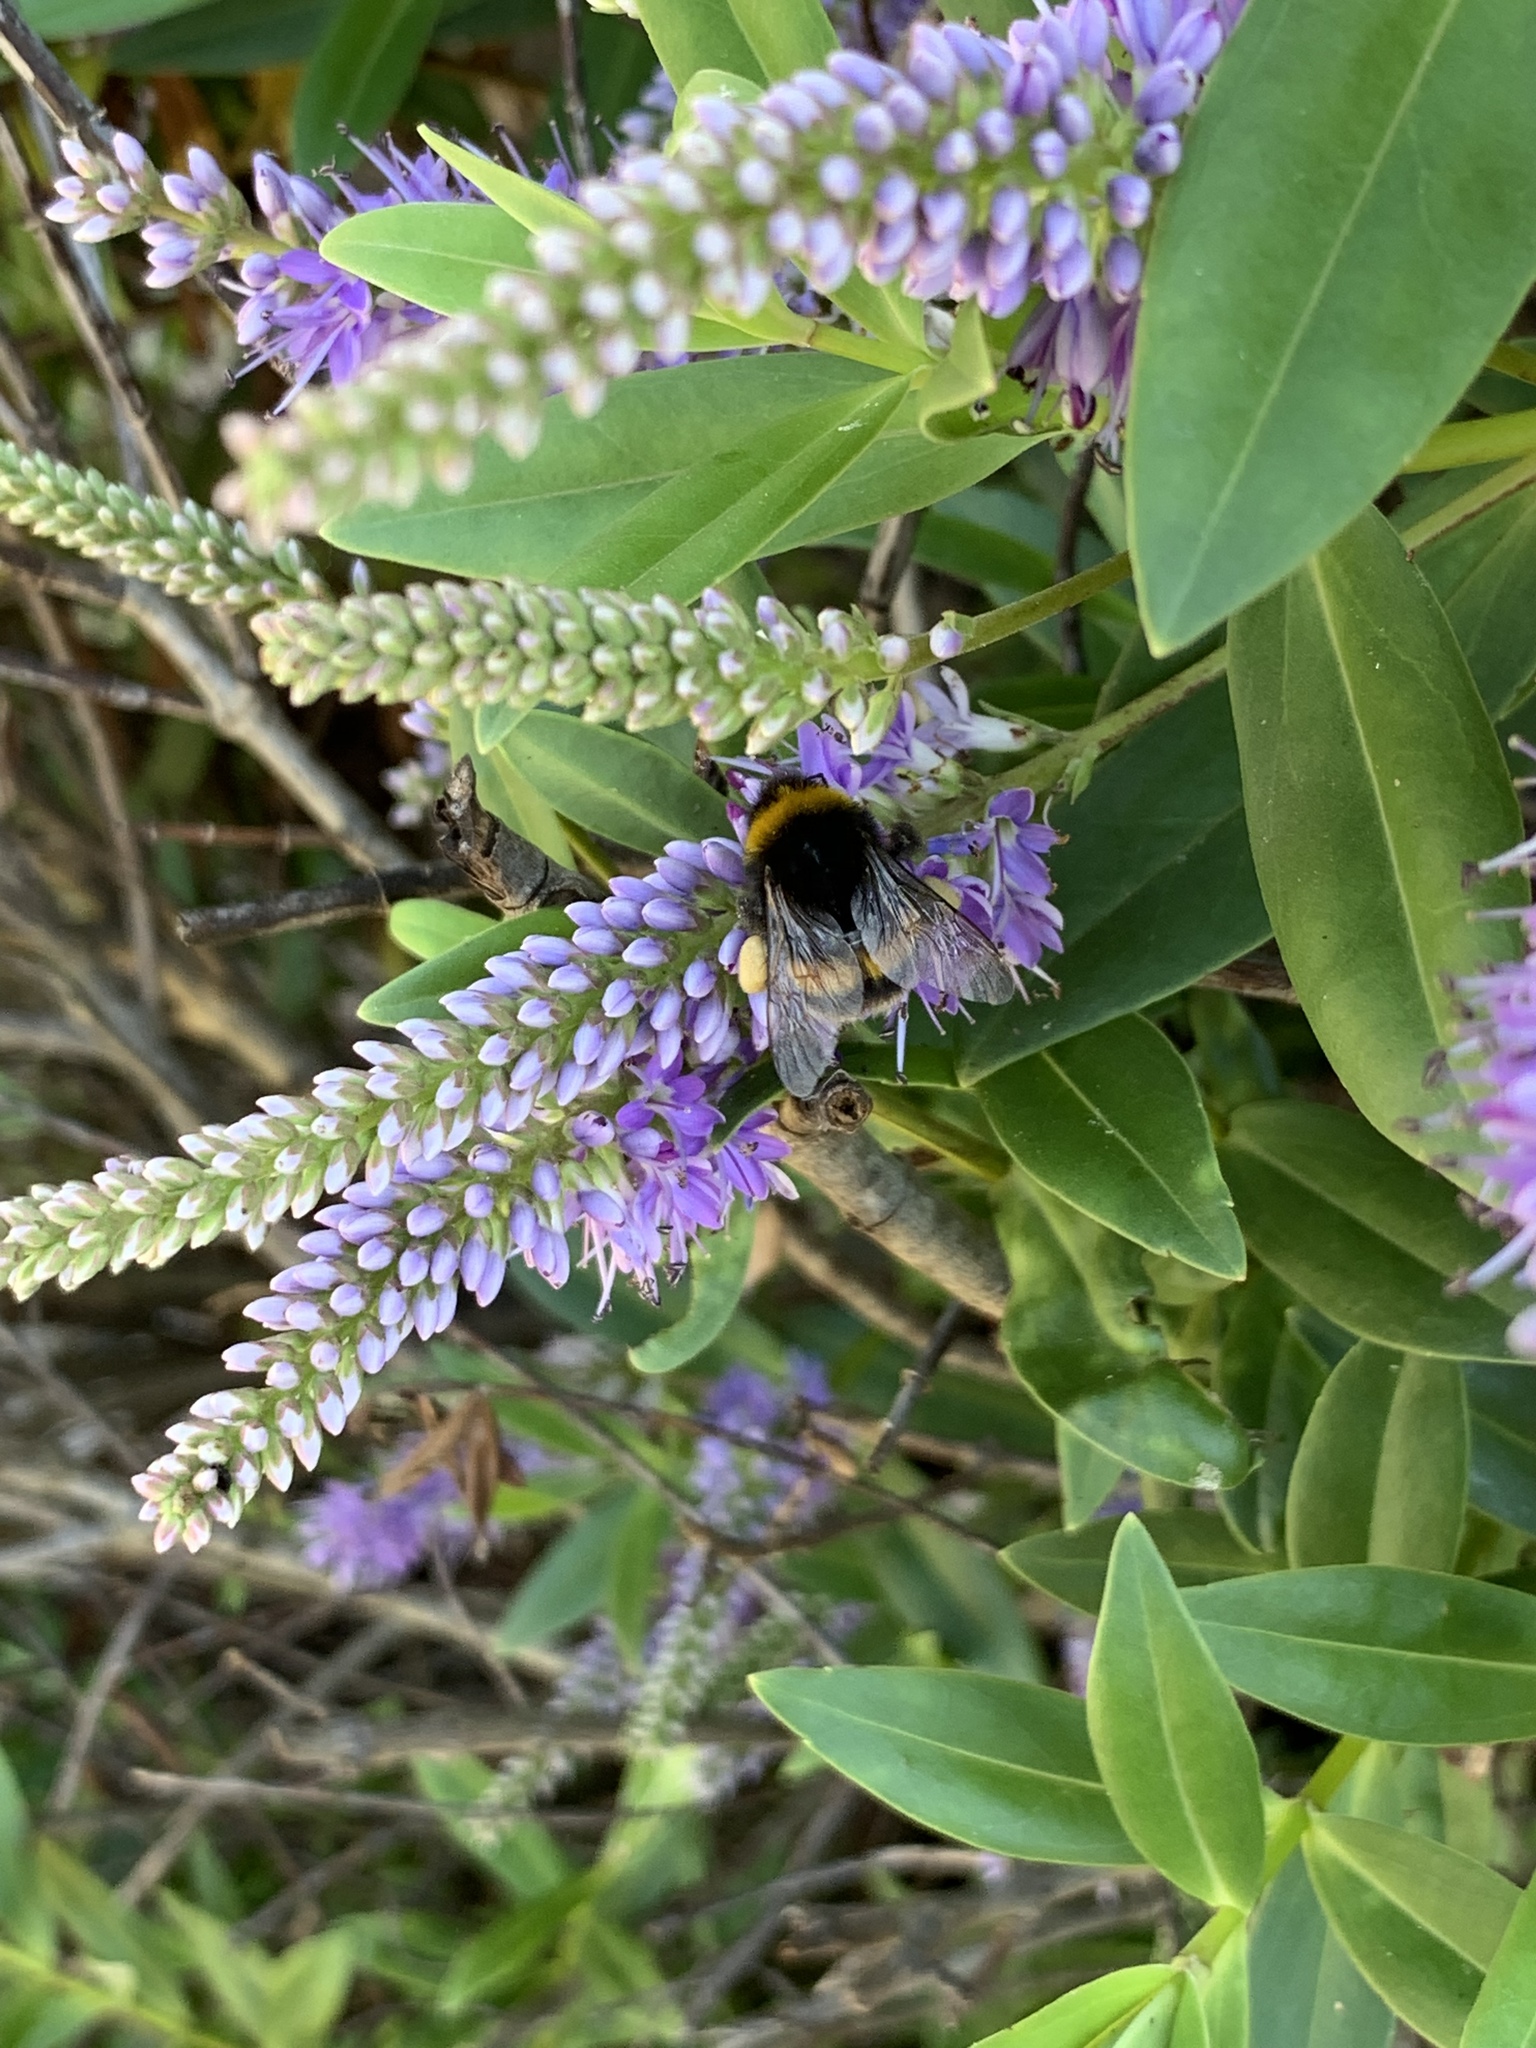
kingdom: Animalia
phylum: Arthropoda
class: Insecta
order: Hymenoptera
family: Apidae
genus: Bombus
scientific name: Bombus terrestris
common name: Buff-tailed bumblebee
